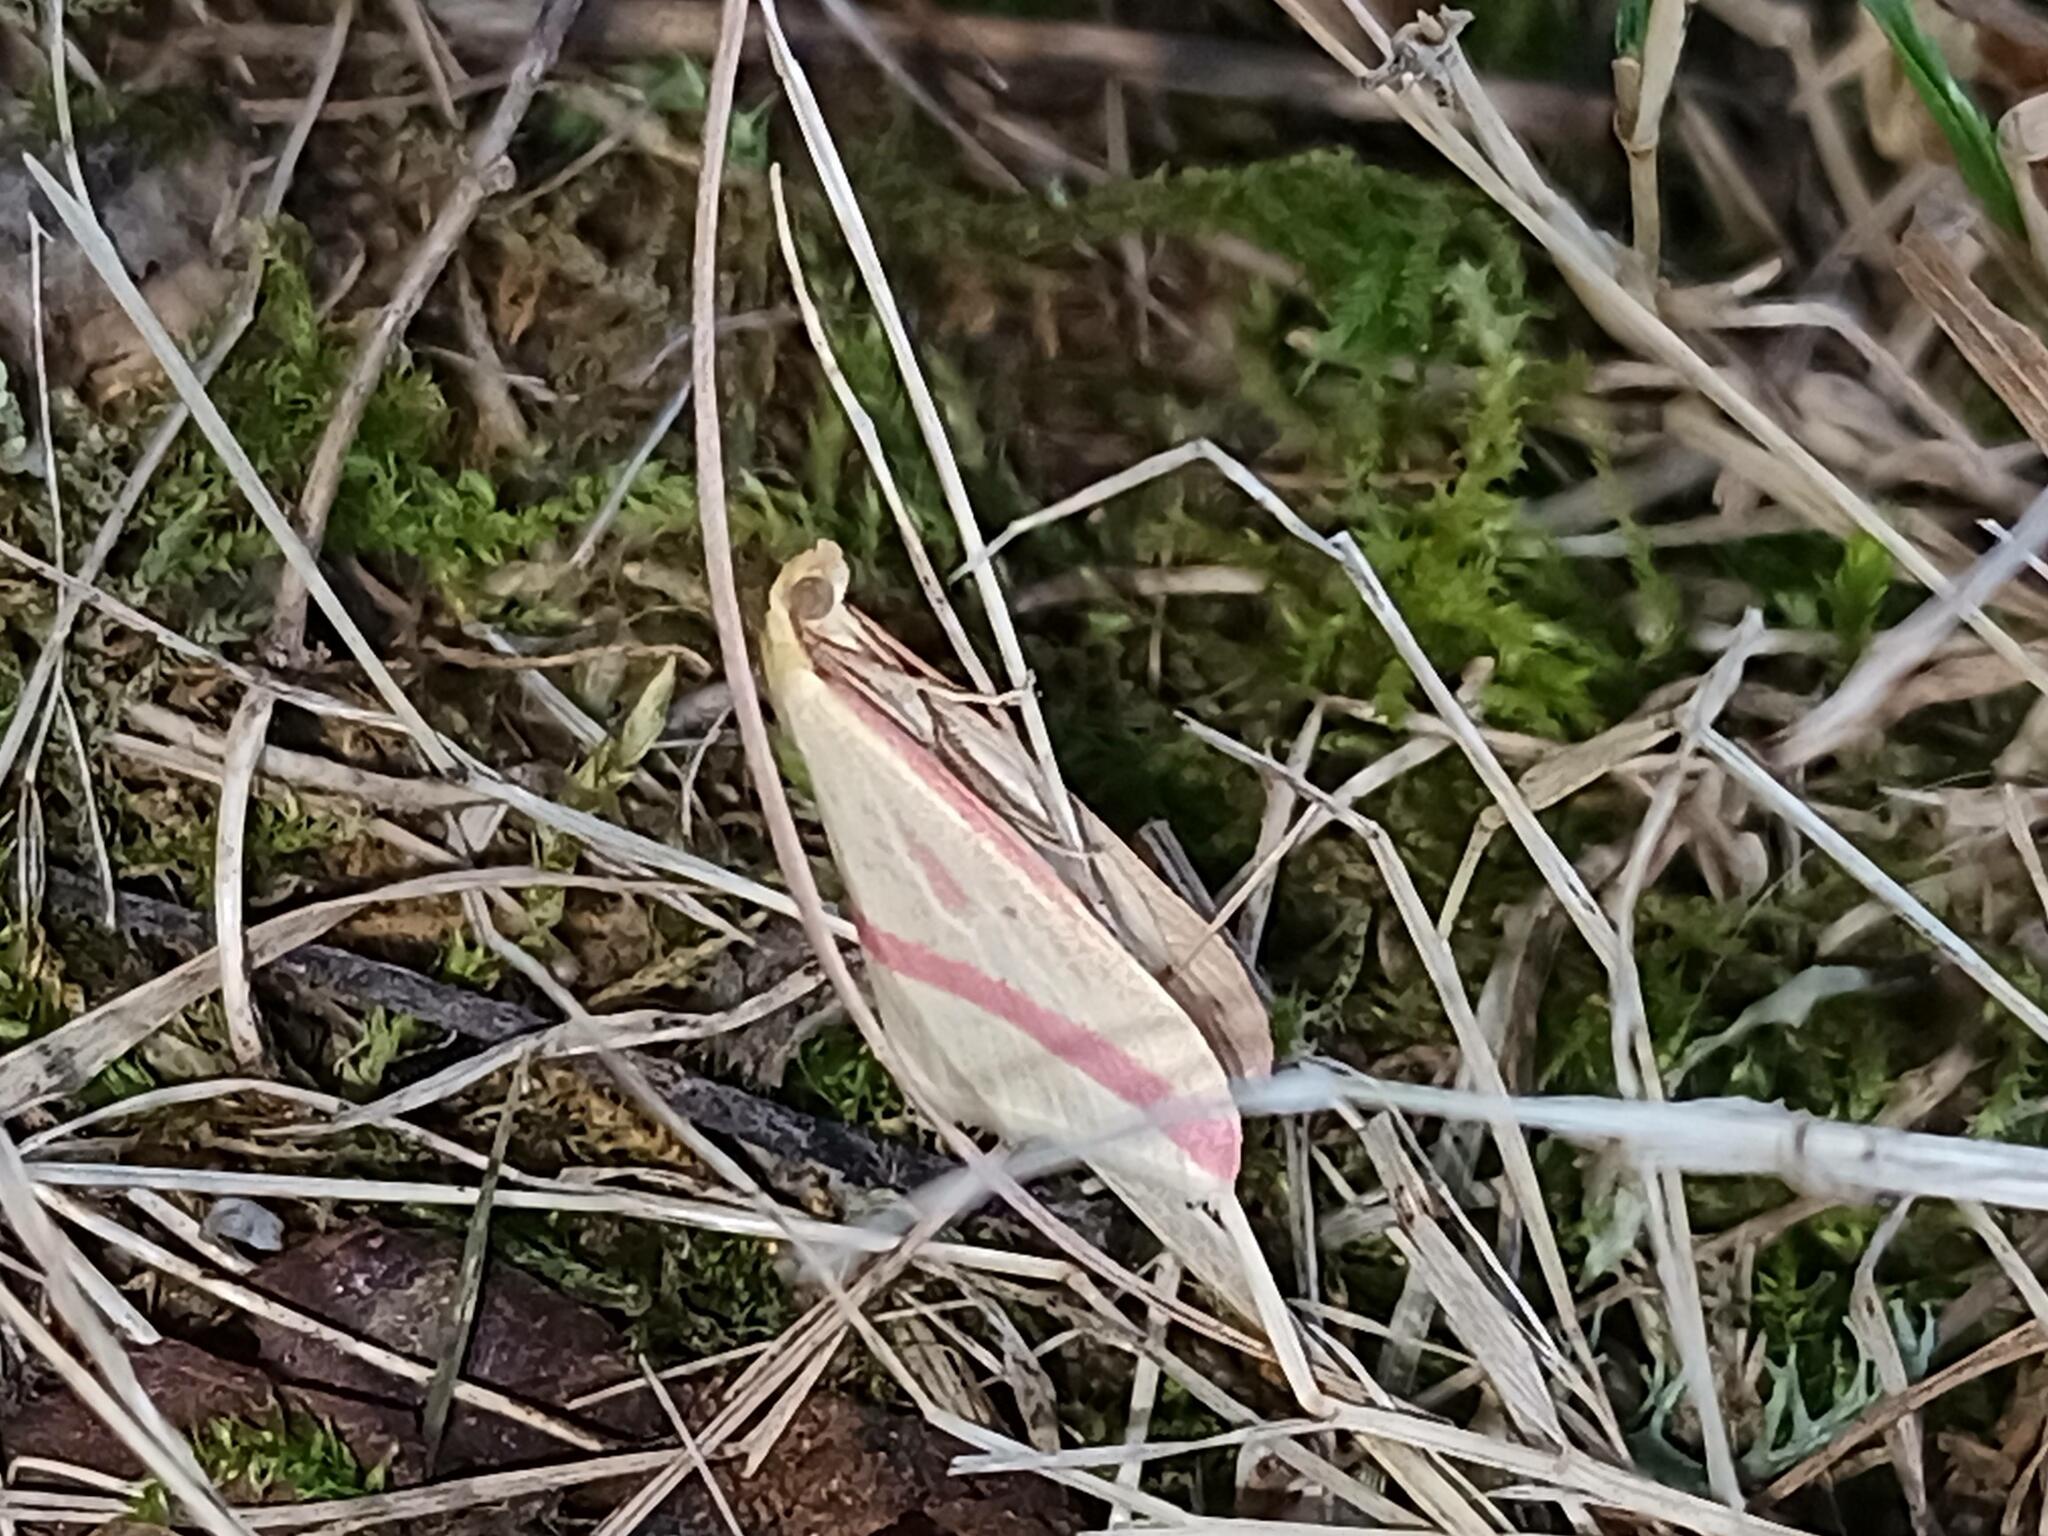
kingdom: Animalia
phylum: Arthropoda
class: Insecta
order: Lepidoptera
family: Geometridae
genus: Rhodometra
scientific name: Rhodometra sacraria
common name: Vestal
